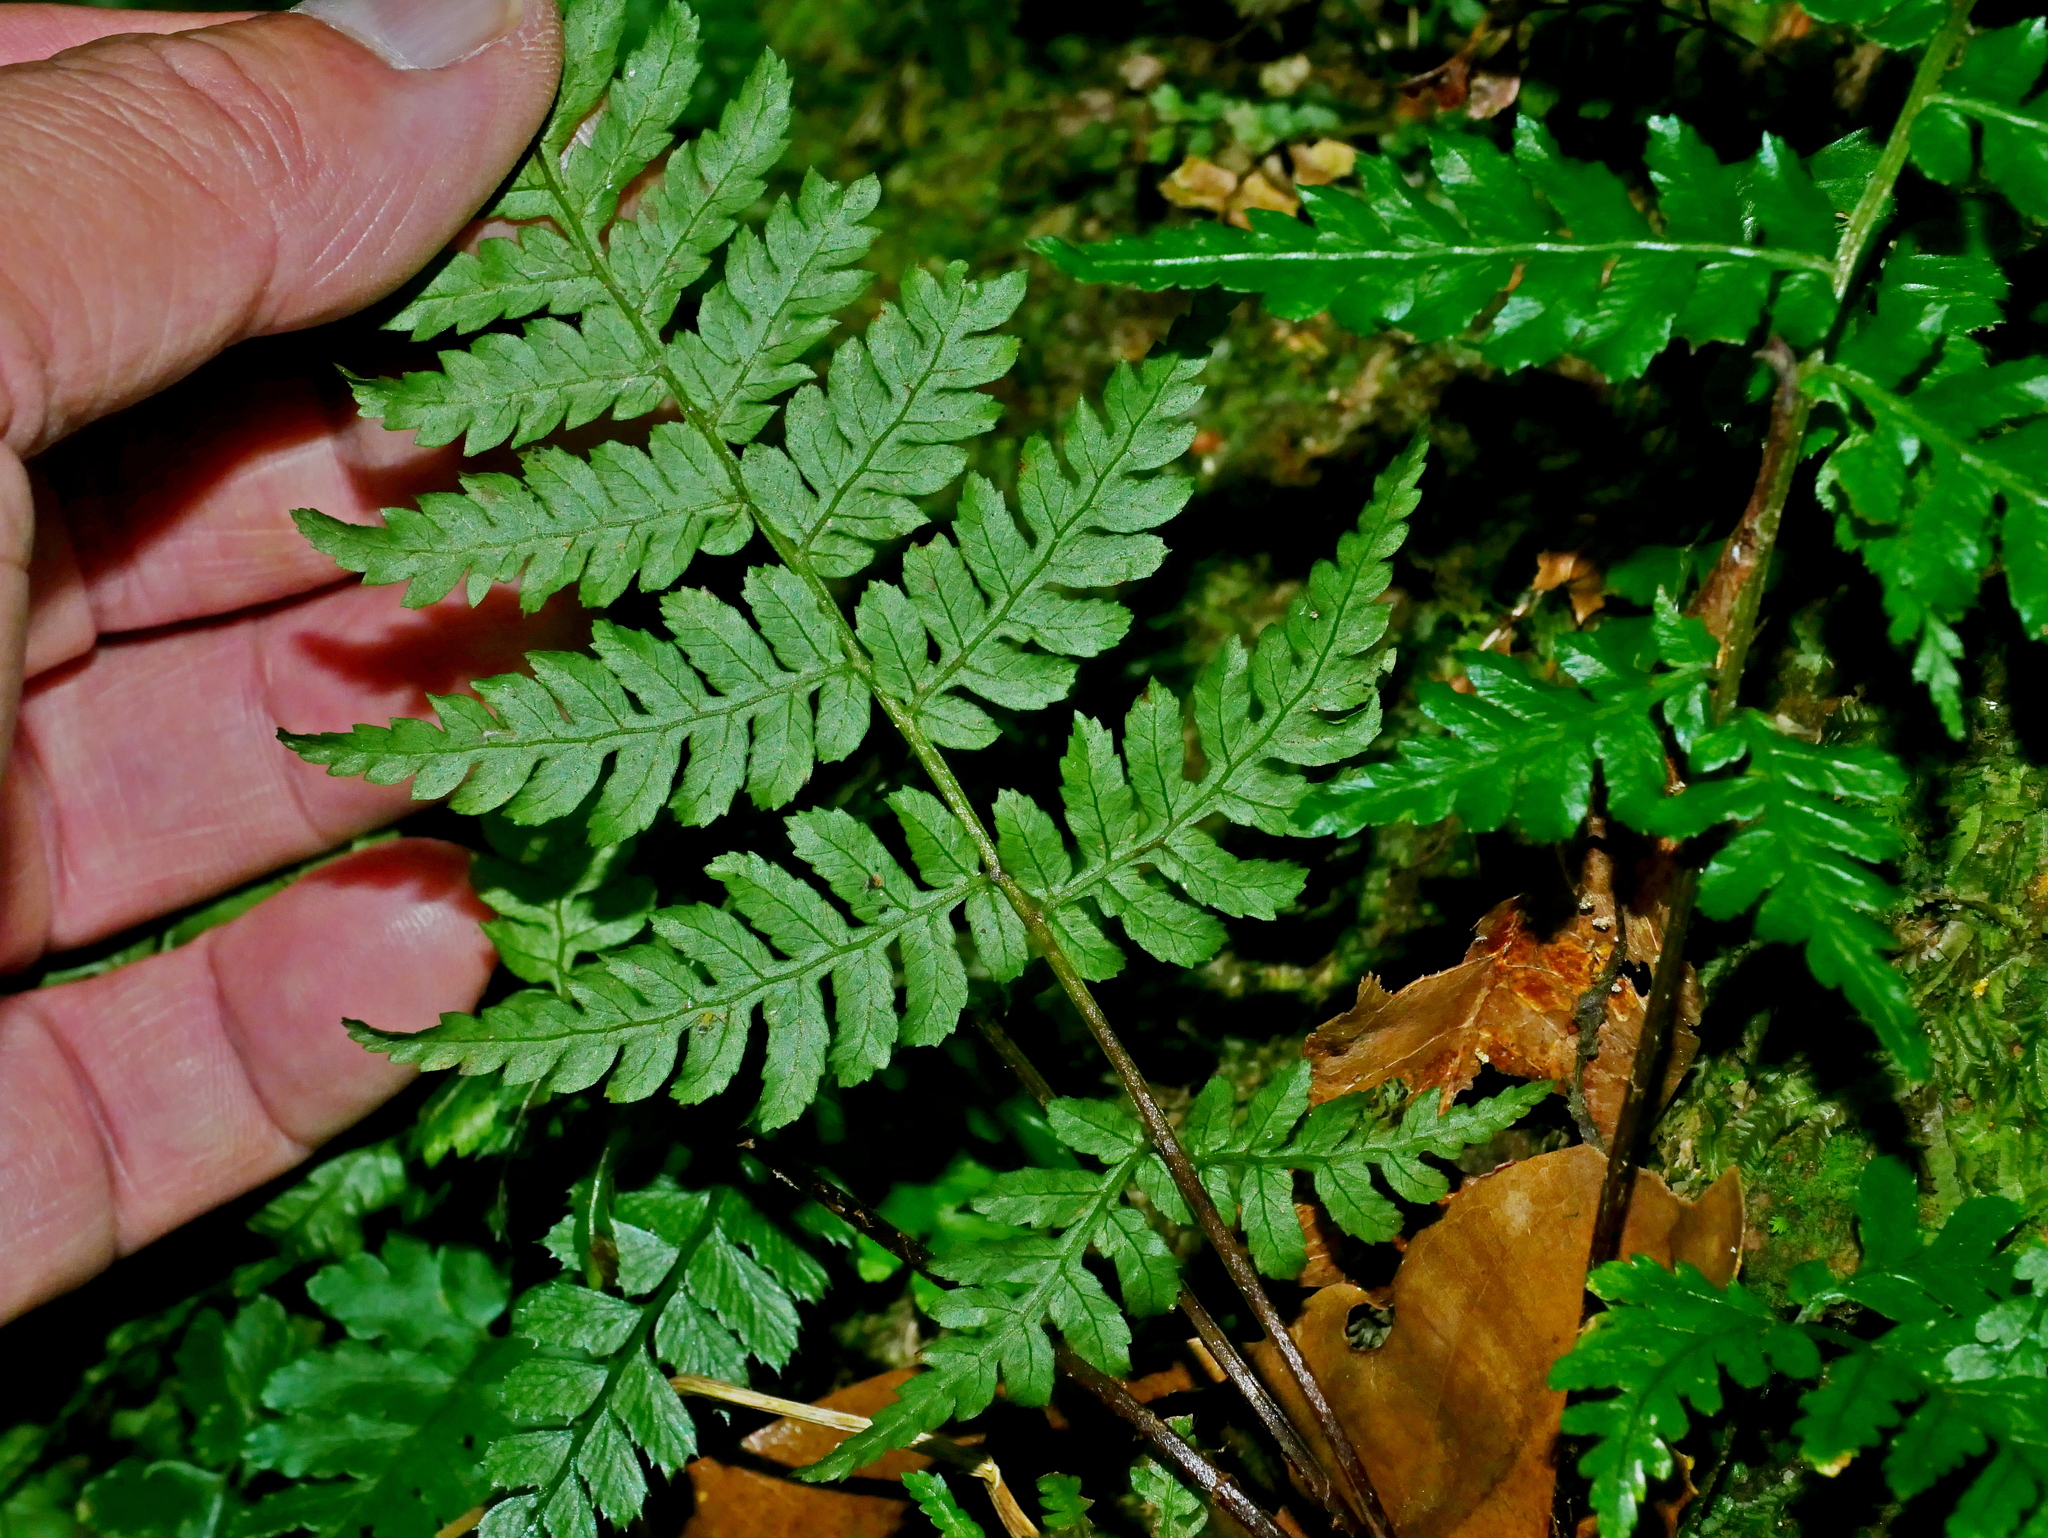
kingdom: Plantae
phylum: Tracheophyta
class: Polypodiopsida
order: Cyatheales
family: Cyatheaceae
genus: Alsophila
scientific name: Alsophila spinulosa
